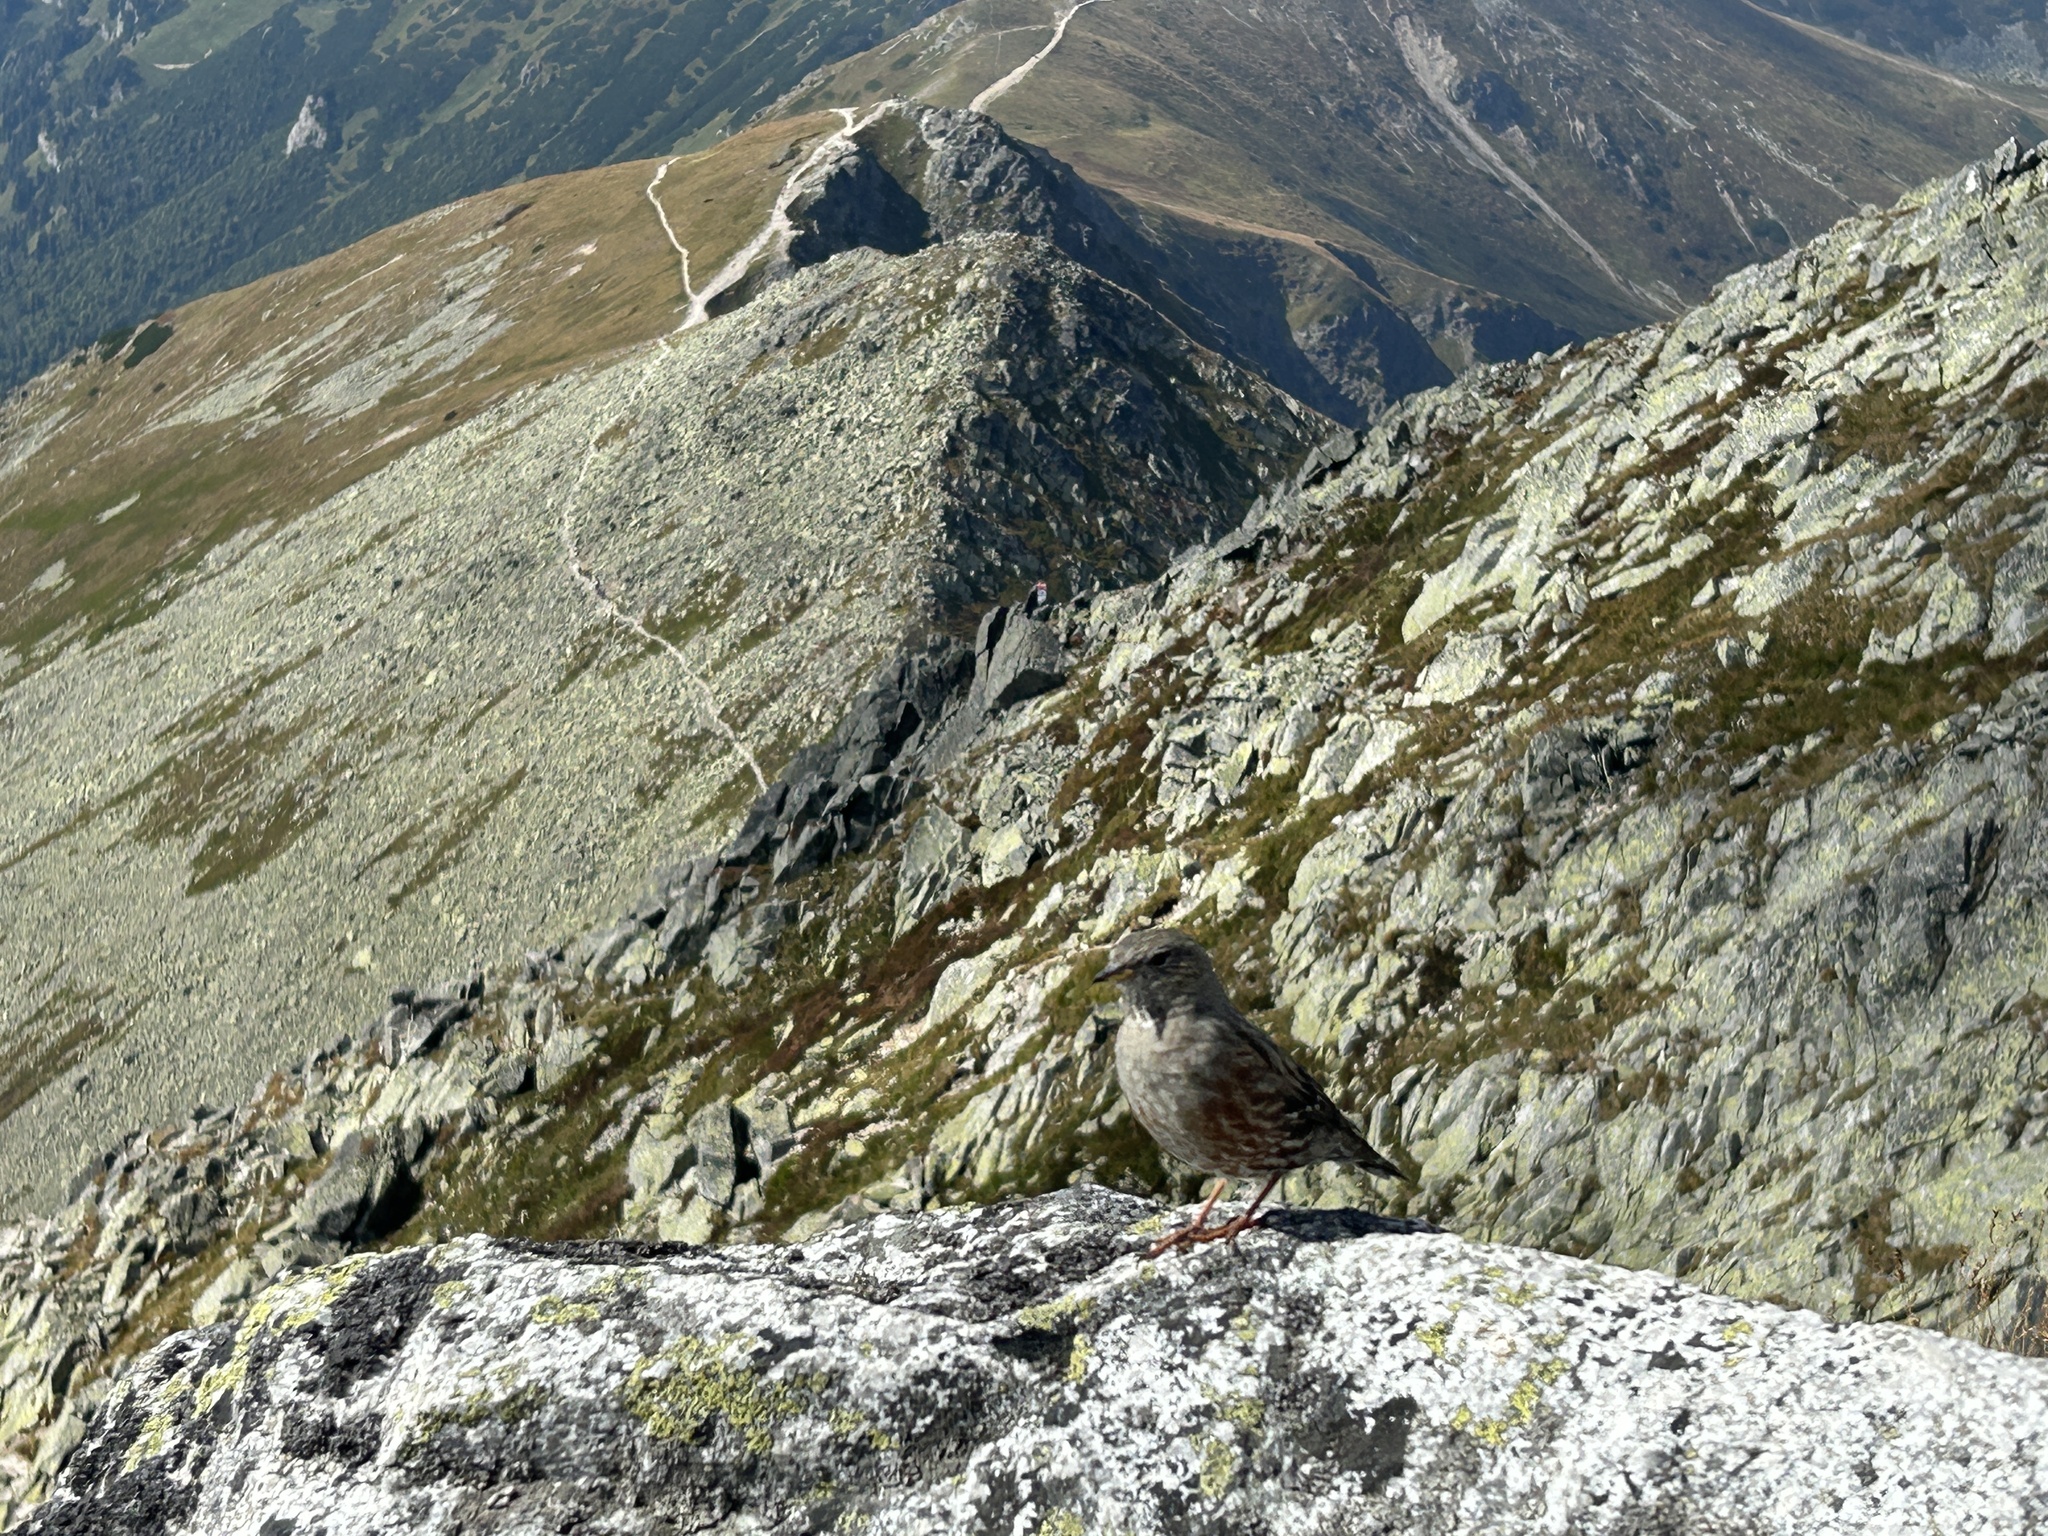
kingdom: Animalia
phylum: Chordata
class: Aves
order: Passeriformes
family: Prunellidae
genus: Prunella
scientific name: Prunella collaris
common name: Alpine accentor
